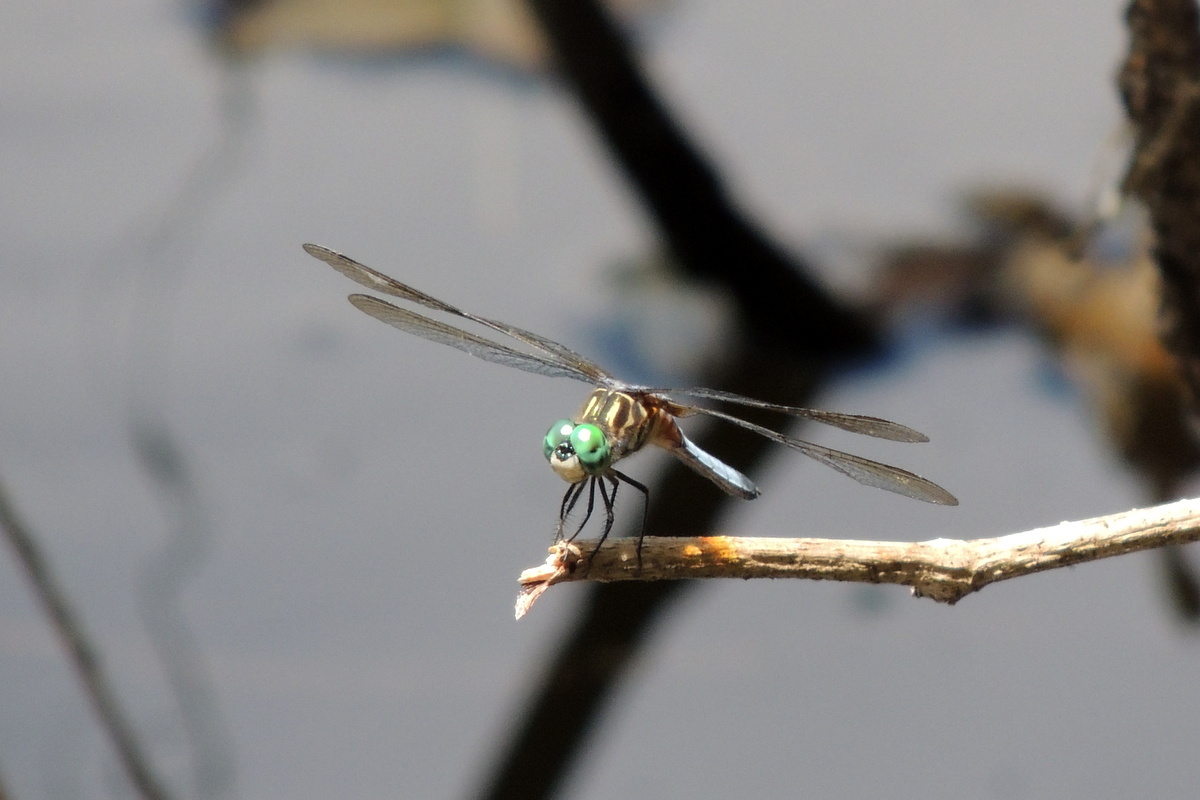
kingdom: Animalia
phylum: Arthropoda
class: Insecta
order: Odonata
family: Libellulidae
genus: Pachydiplax
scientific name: Pachydiplax longipennis
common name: Blue dasher
